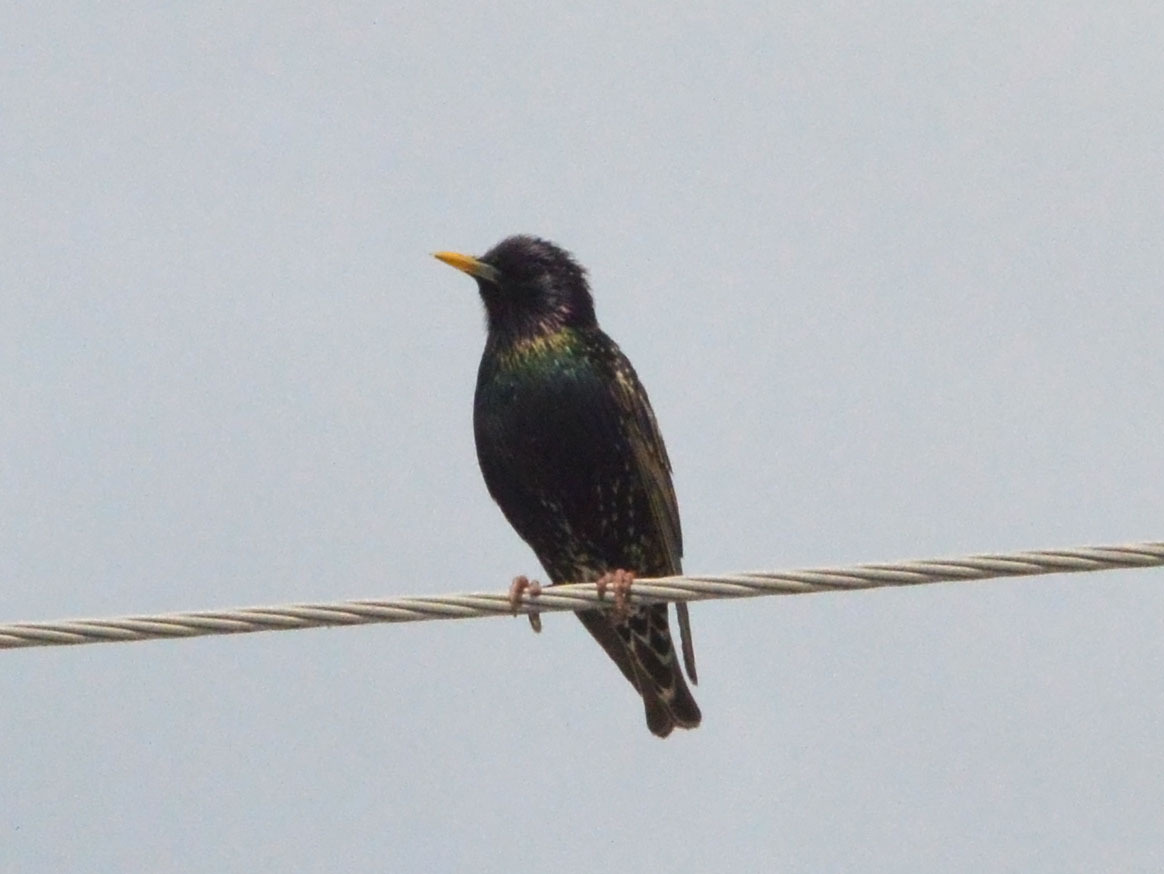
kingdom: Animalia
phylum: Chordata
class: Aves
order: Passeriformes
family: Sturnidae
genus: Sturnus
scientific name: Sturnus vulgaris
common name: Common starling
